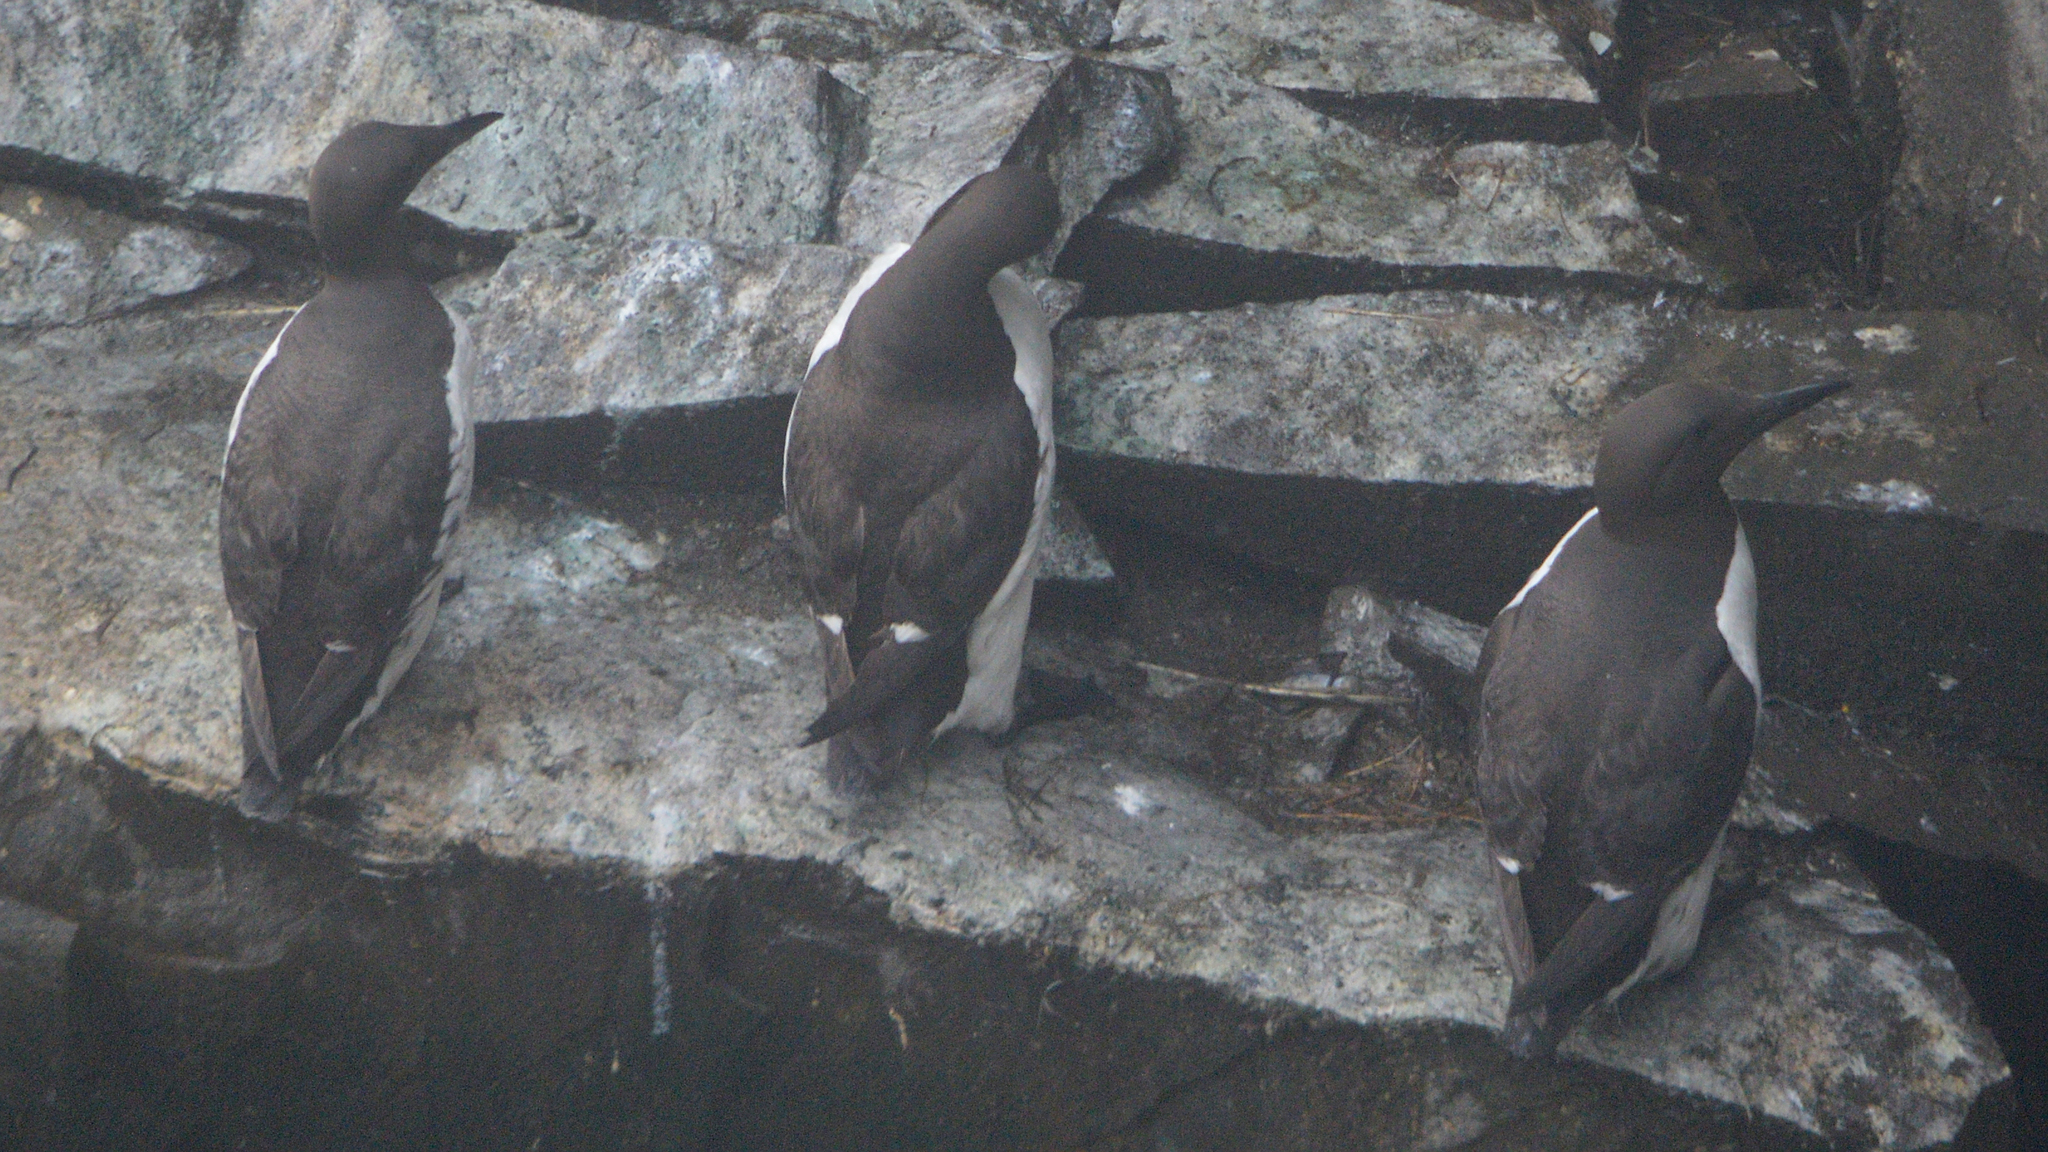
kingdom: Animalia
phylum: Chordata
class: Aves
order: Charadriiformes
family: Alcidae
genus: Uria
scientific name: Uria aalge
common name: Common murre
